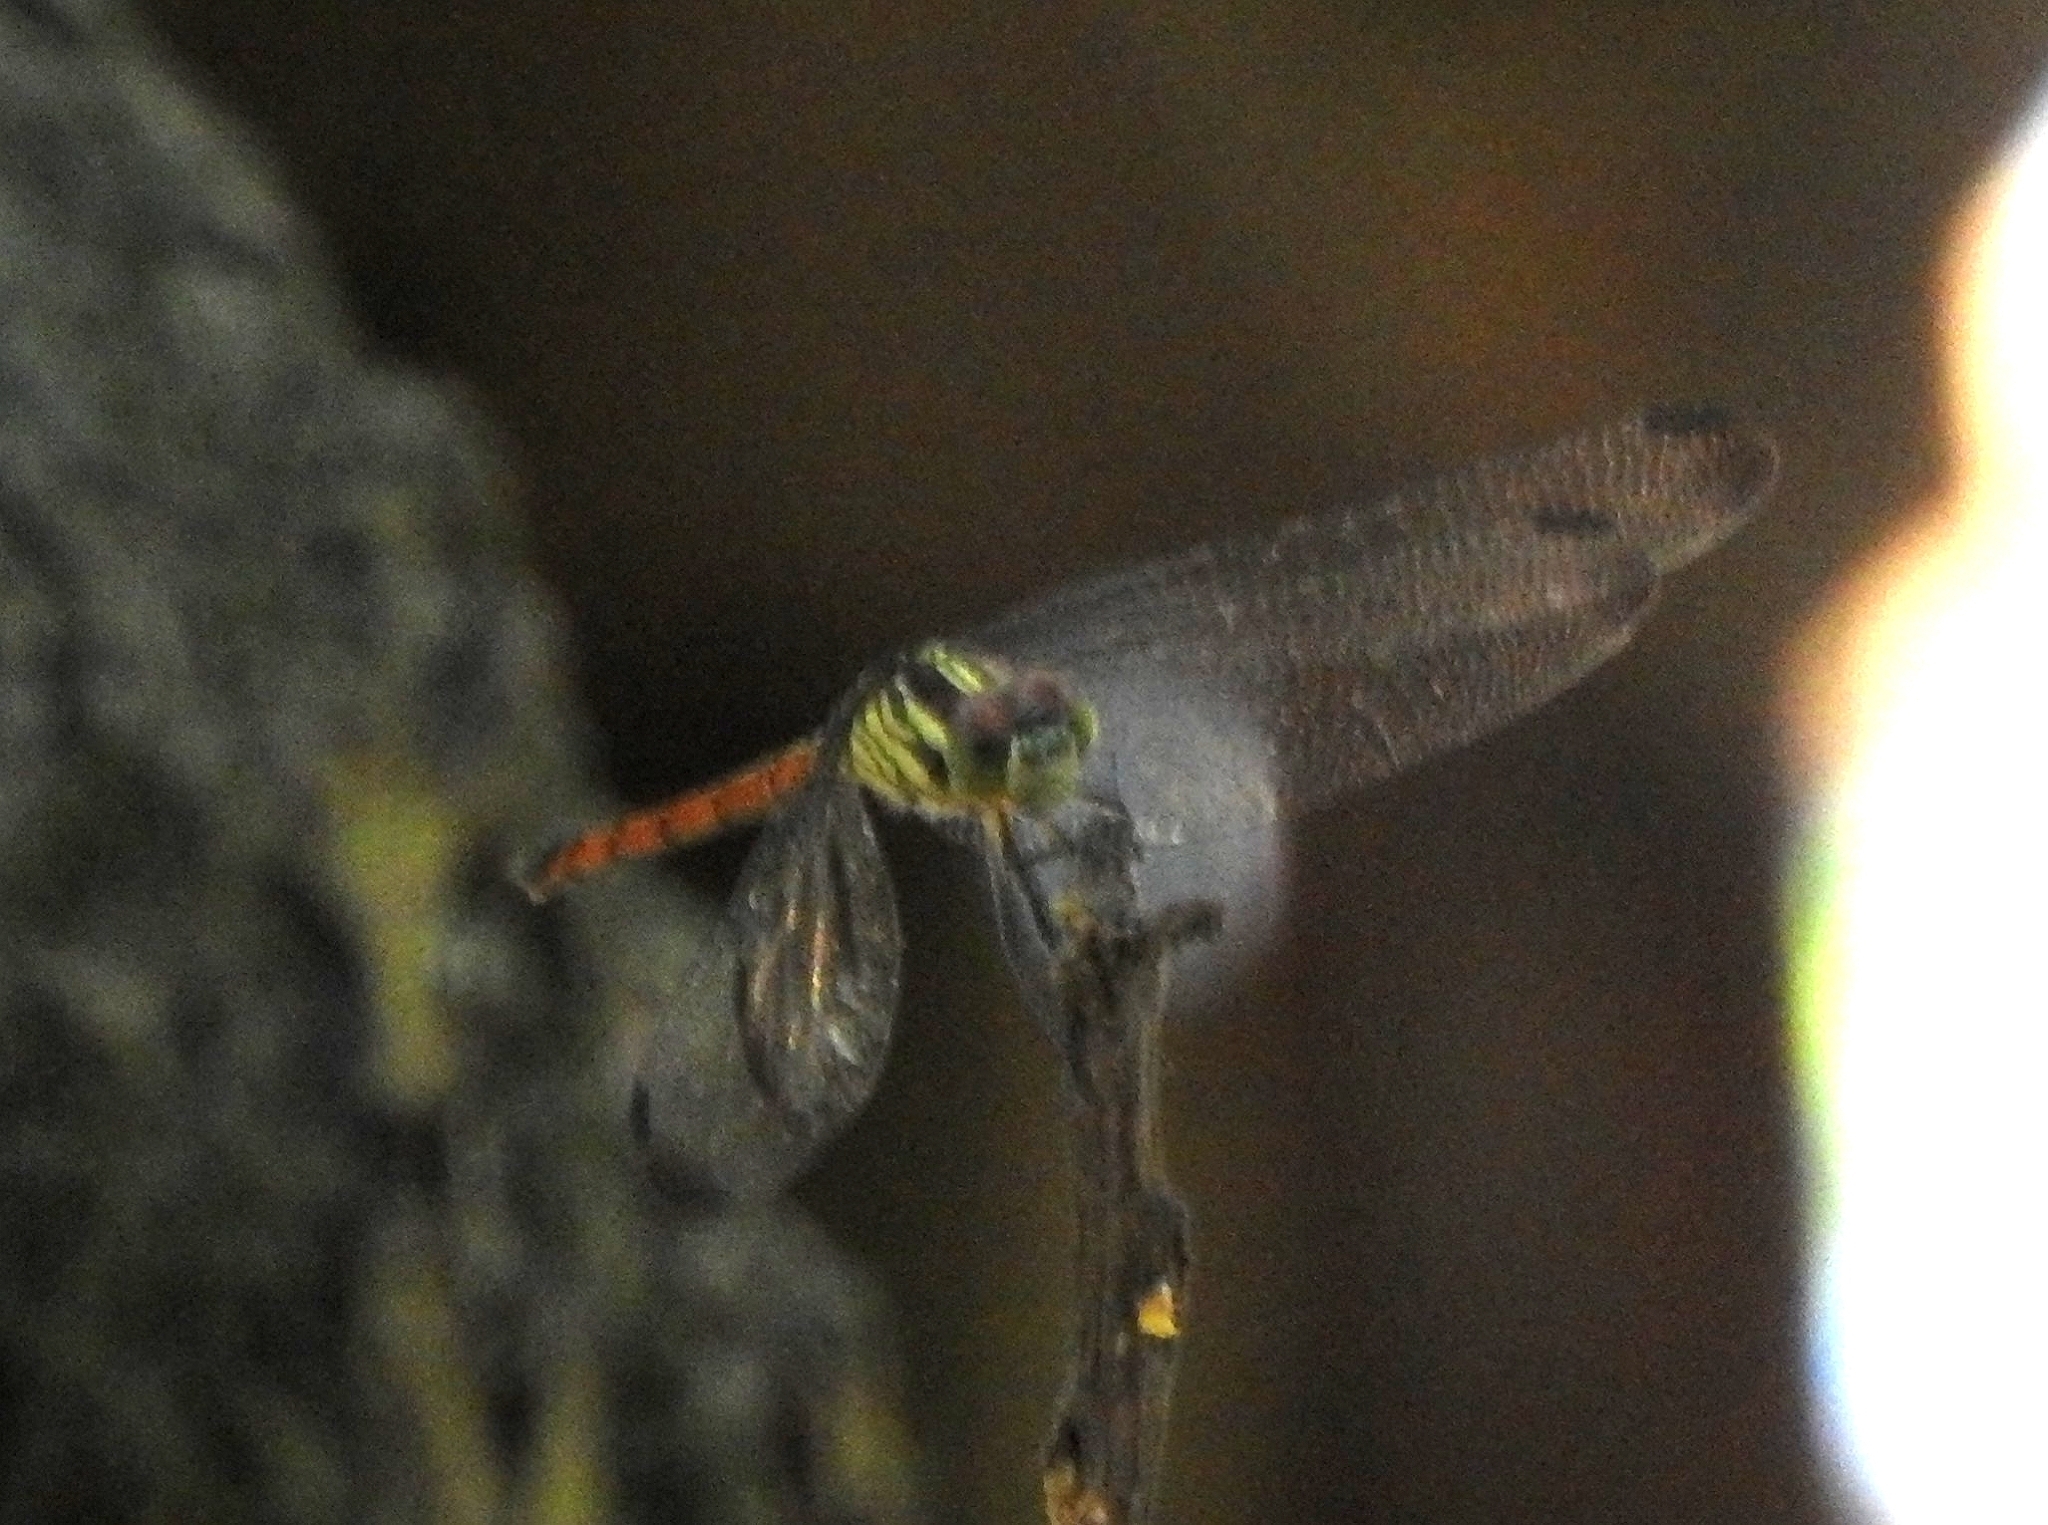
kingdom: Animalia
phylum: Arthropoda
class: Insecta
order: Odonata
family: Libellulidae
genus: Lathrecista
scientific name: Lathrecista asiatica
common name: Scarlet grenadier
